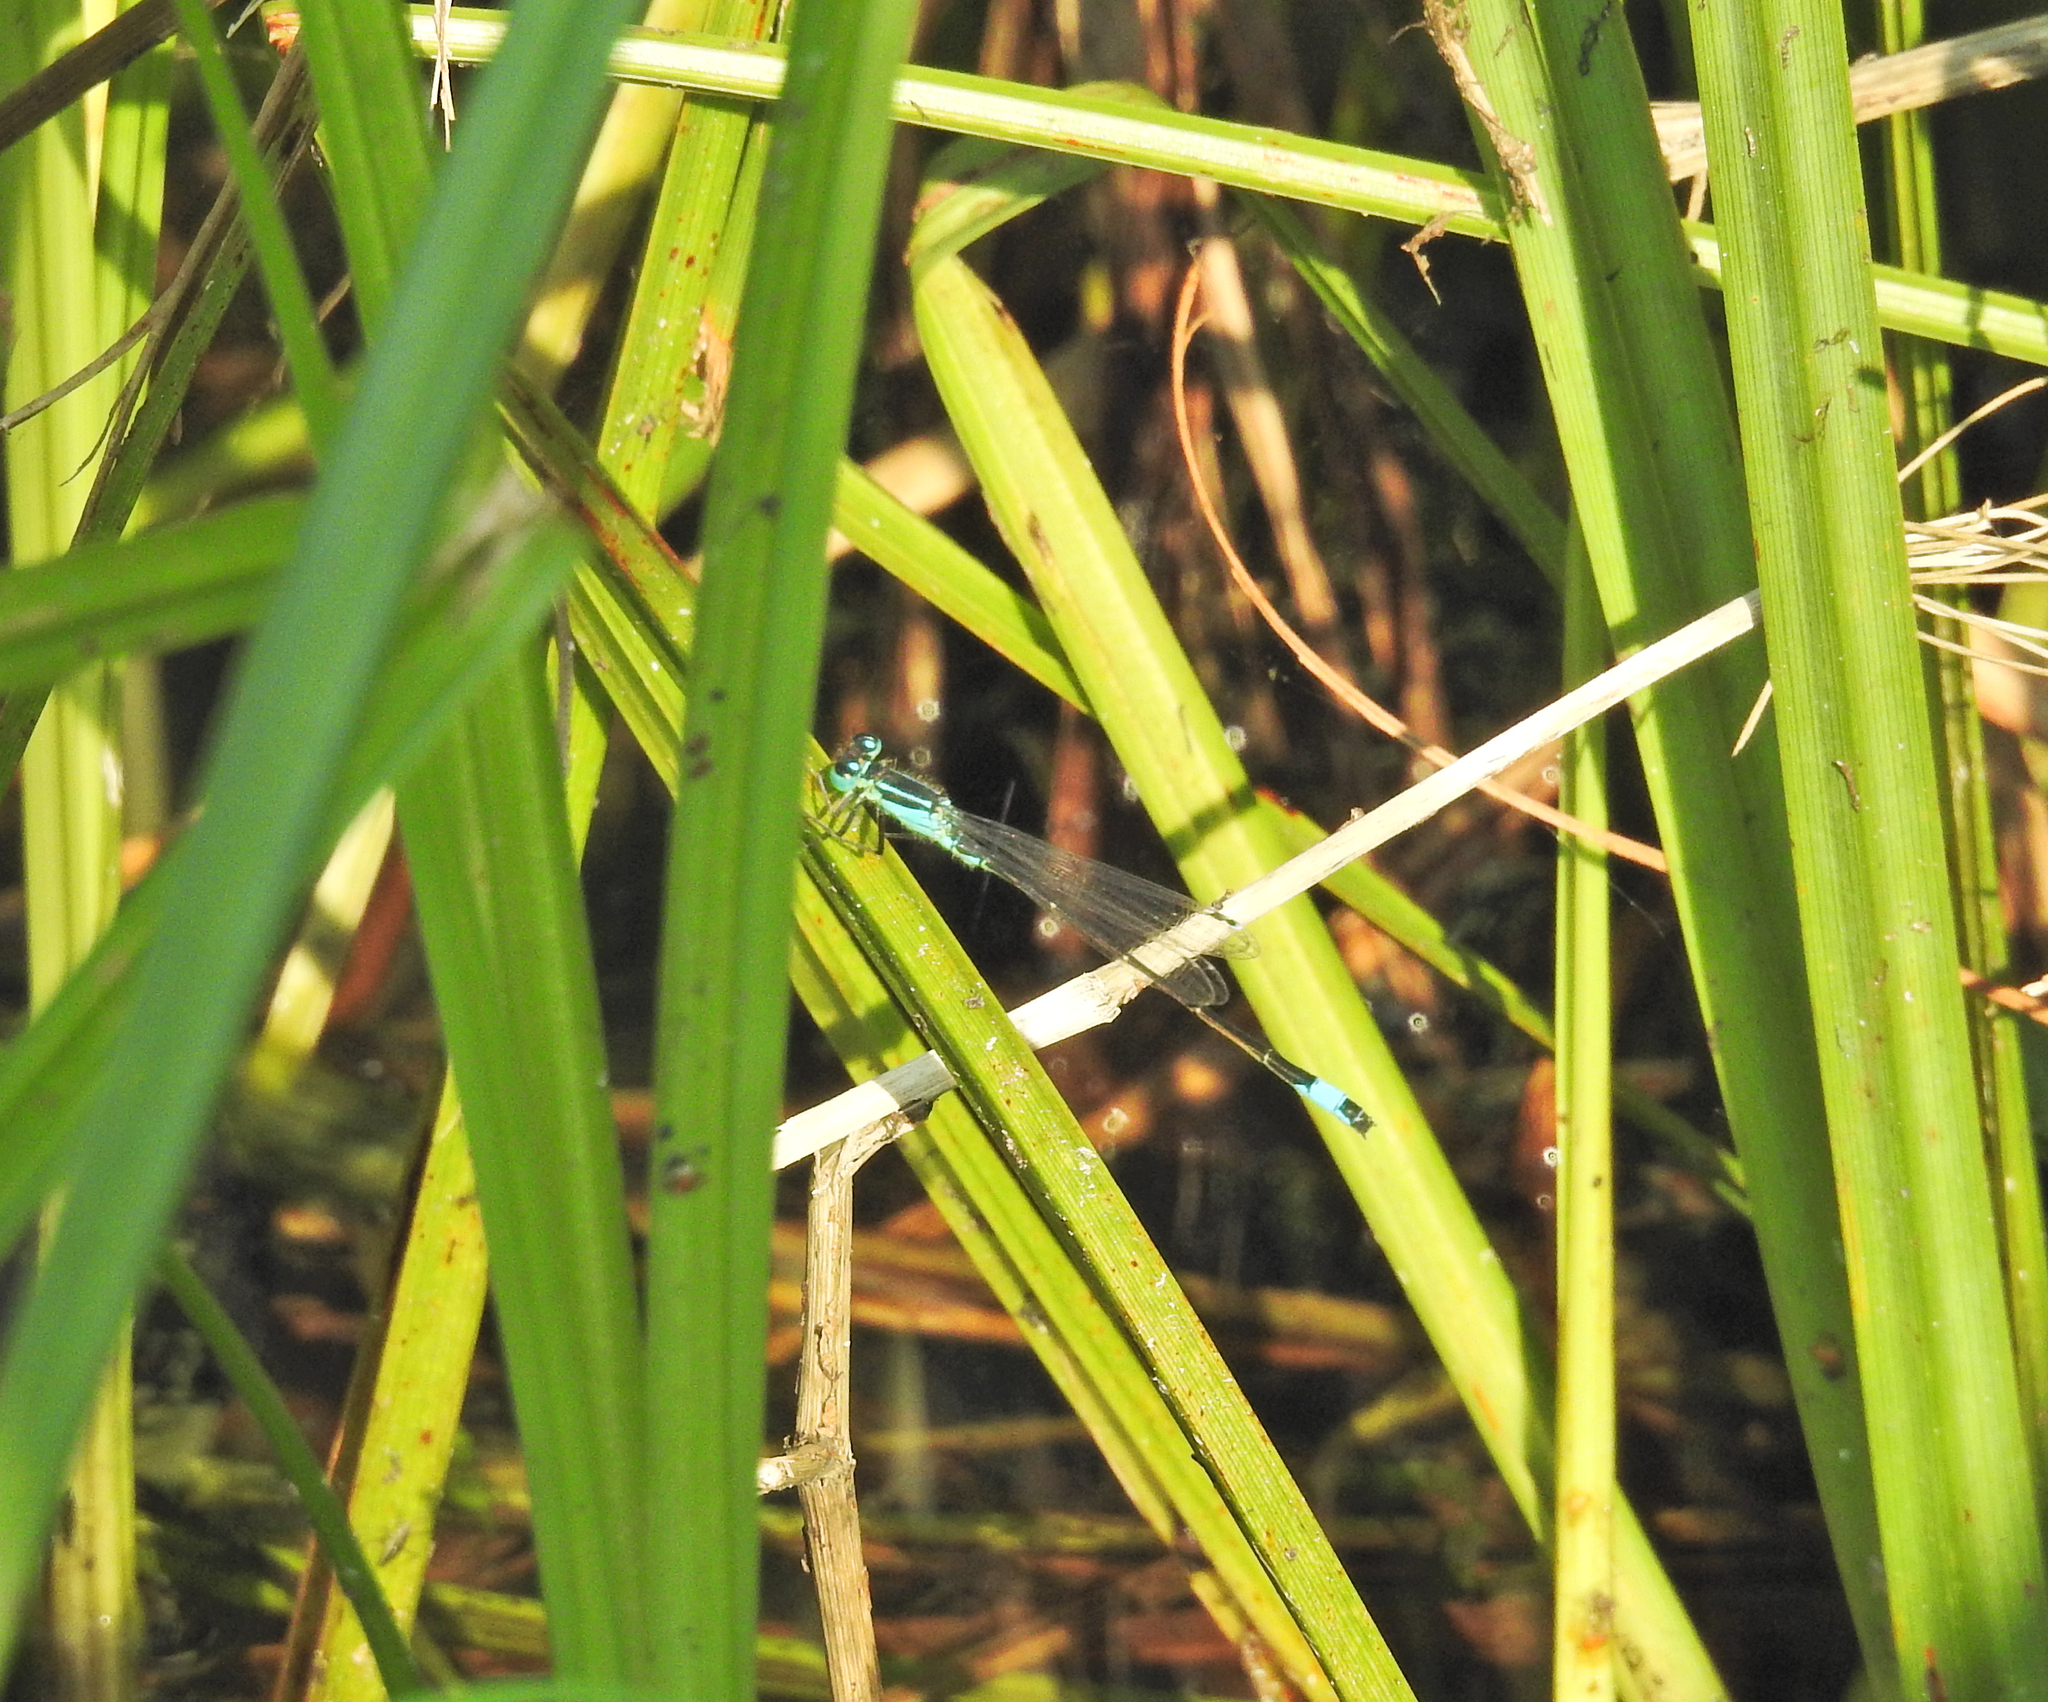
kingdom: Animalia
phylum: Arthropoda
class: Insecta
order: Odonata
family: Coenagrionidae
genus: Ischnura
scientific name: Ischnura elegans
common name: Blue-tailed damselfly
